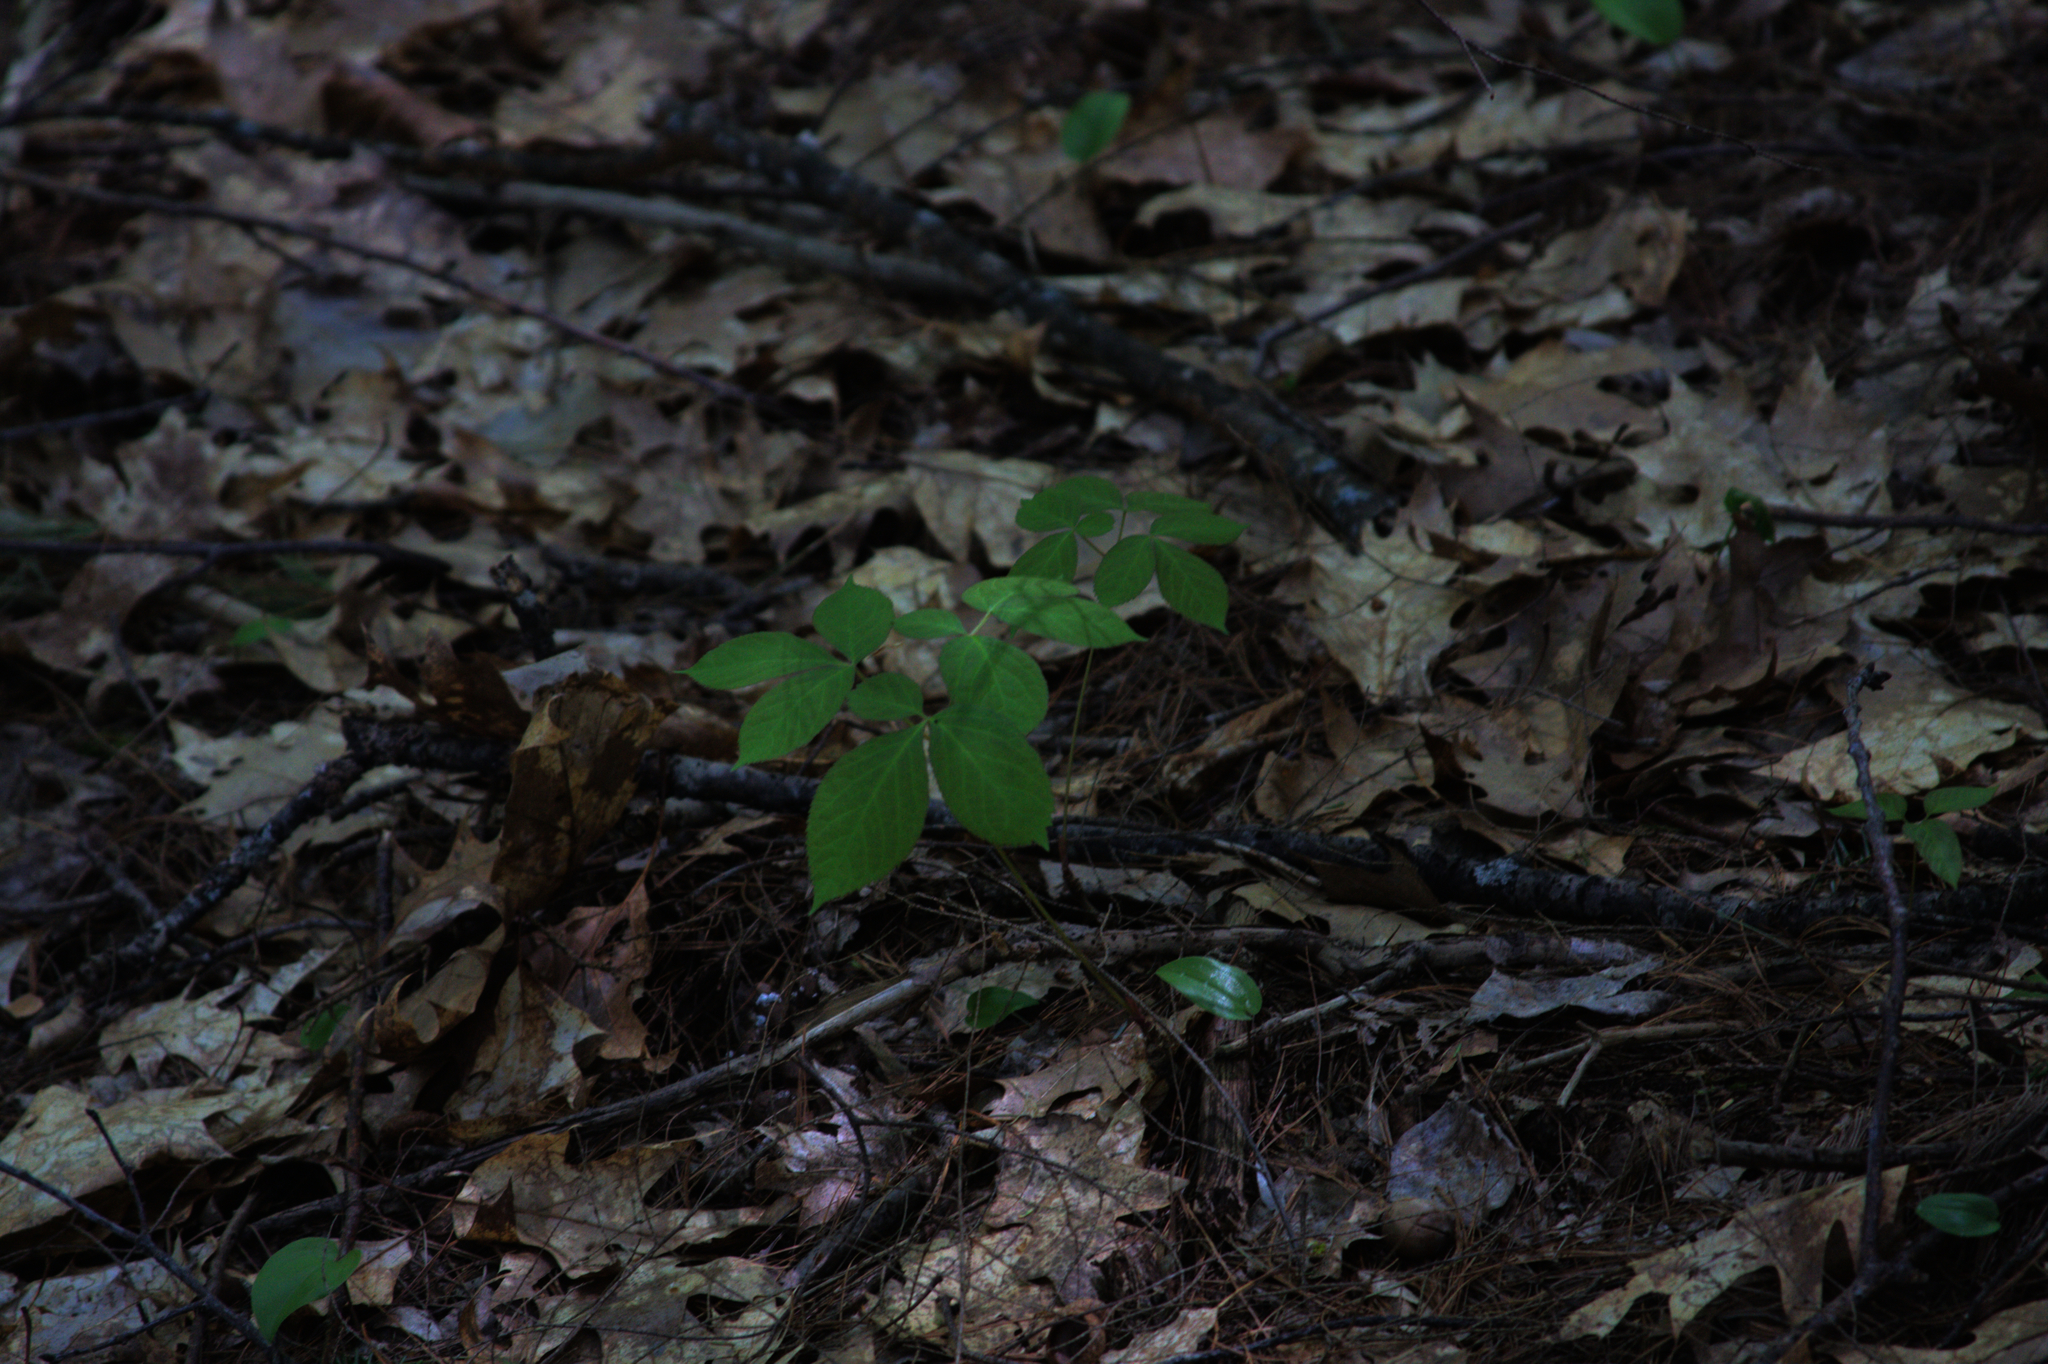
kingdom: Plantae
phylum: Tracheophyta
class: Magnoliopsida
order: Apiales
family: Araliaceae
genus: Aralia
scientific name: Aralia nudicaulis
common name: Wild sarsaparilla
